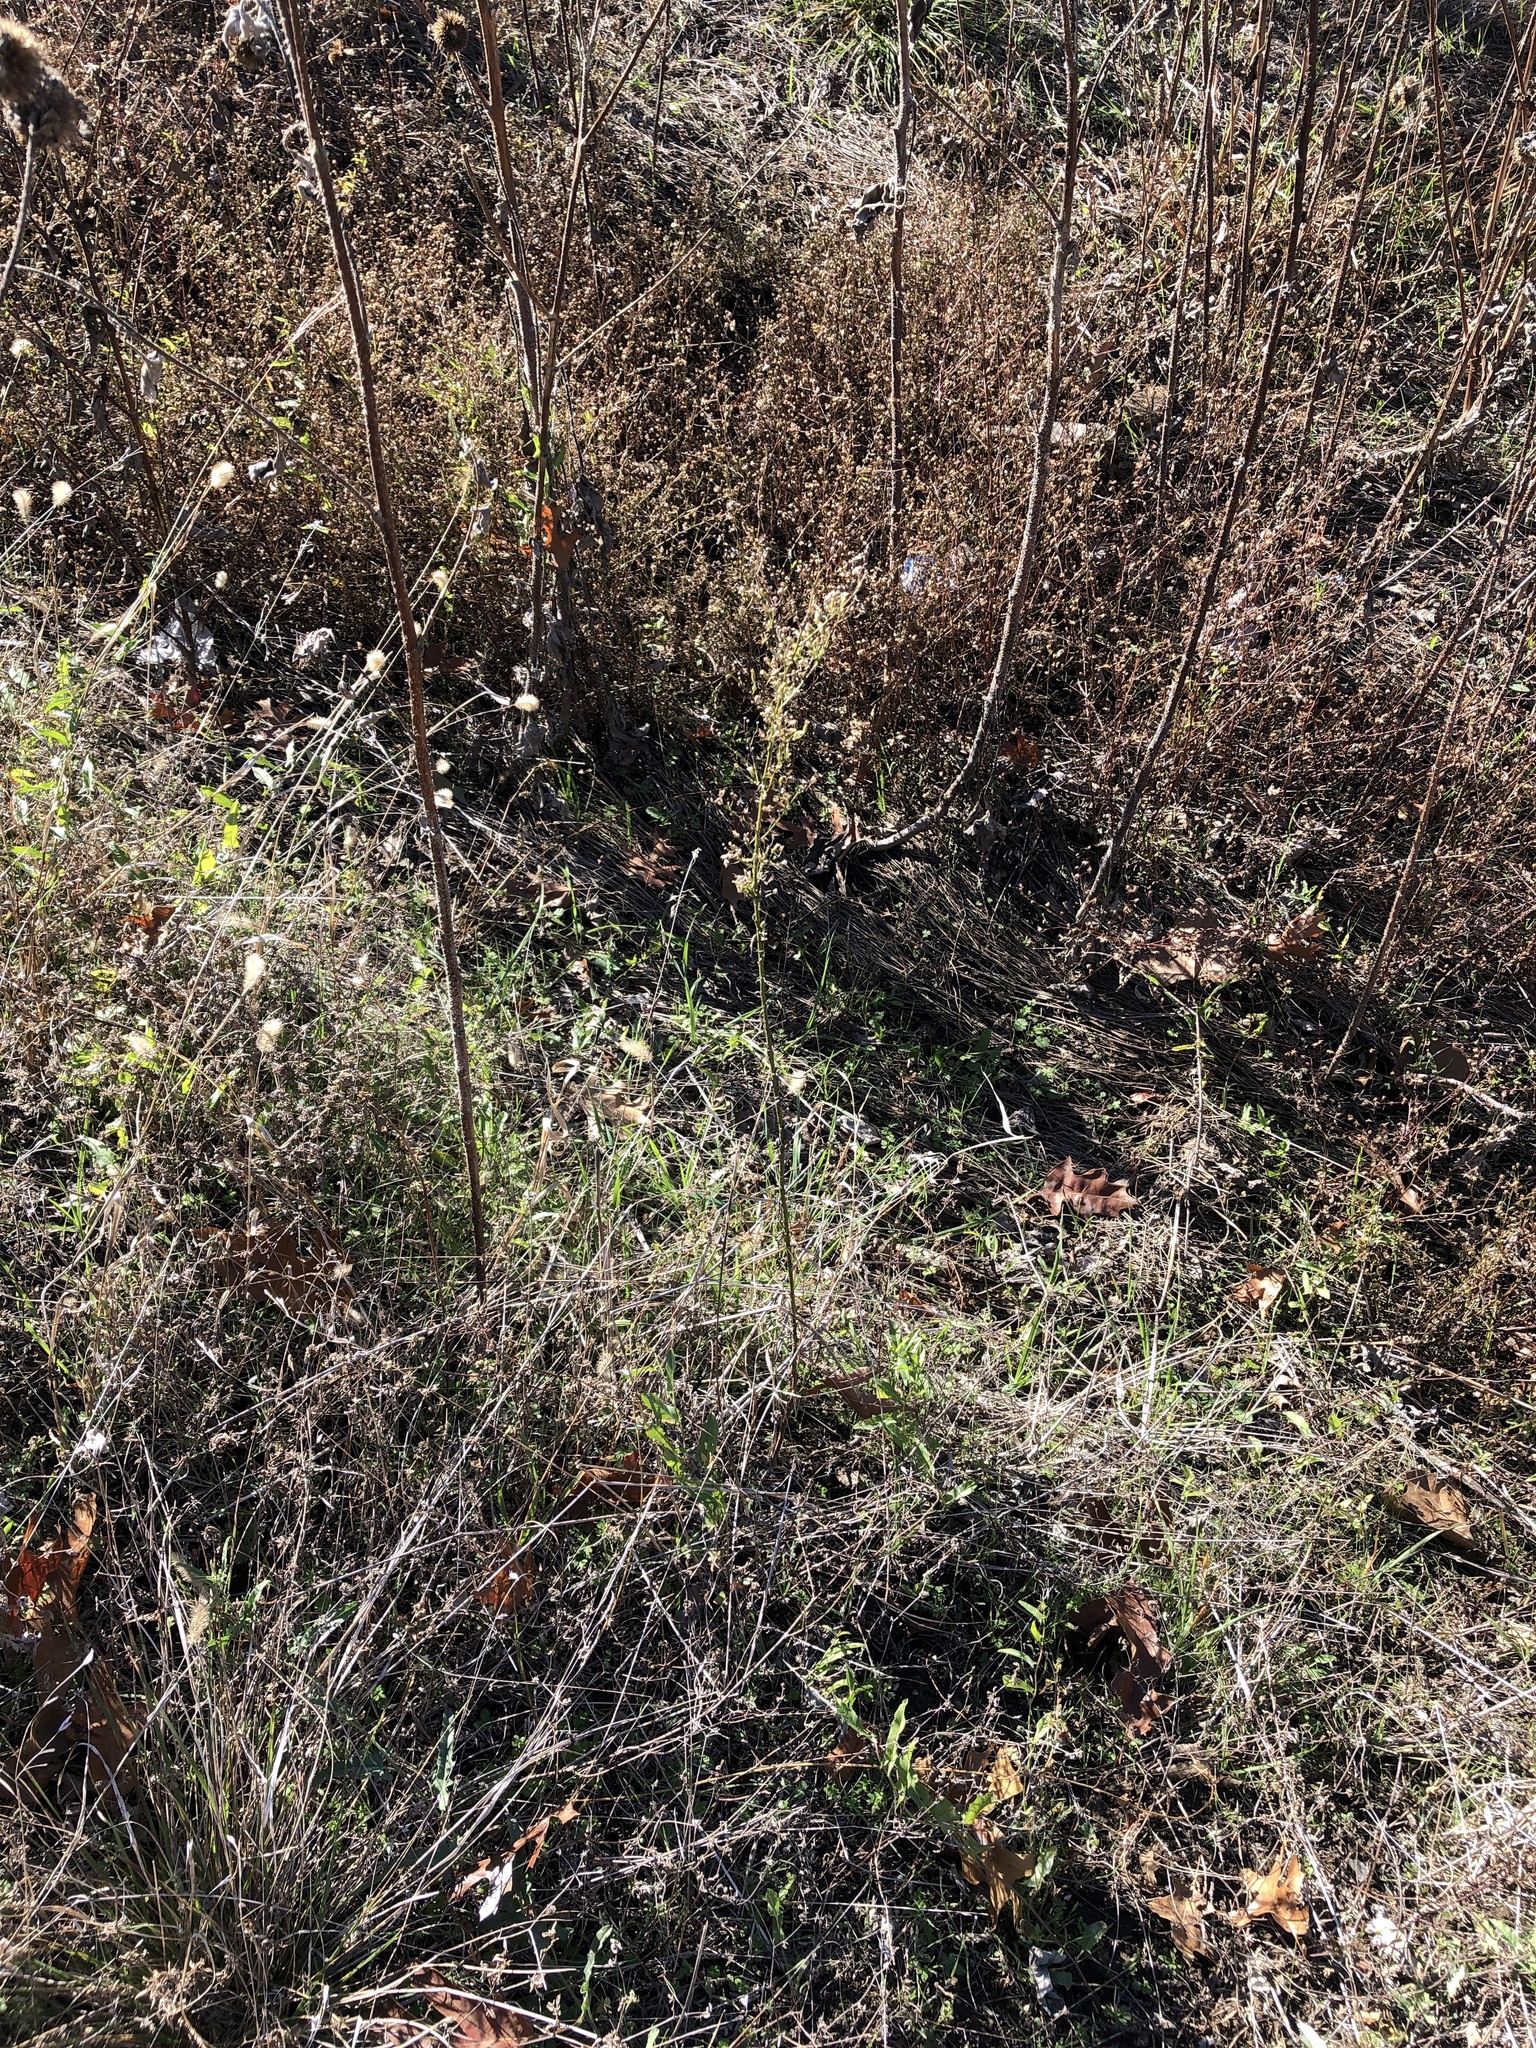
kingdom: Plantae
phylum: Tracheophyta
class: Magnoliopsida
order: Asterales
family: Asteraceae
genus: Erigeron
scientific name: Erigeron canadensis
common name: Canadian fleabane
